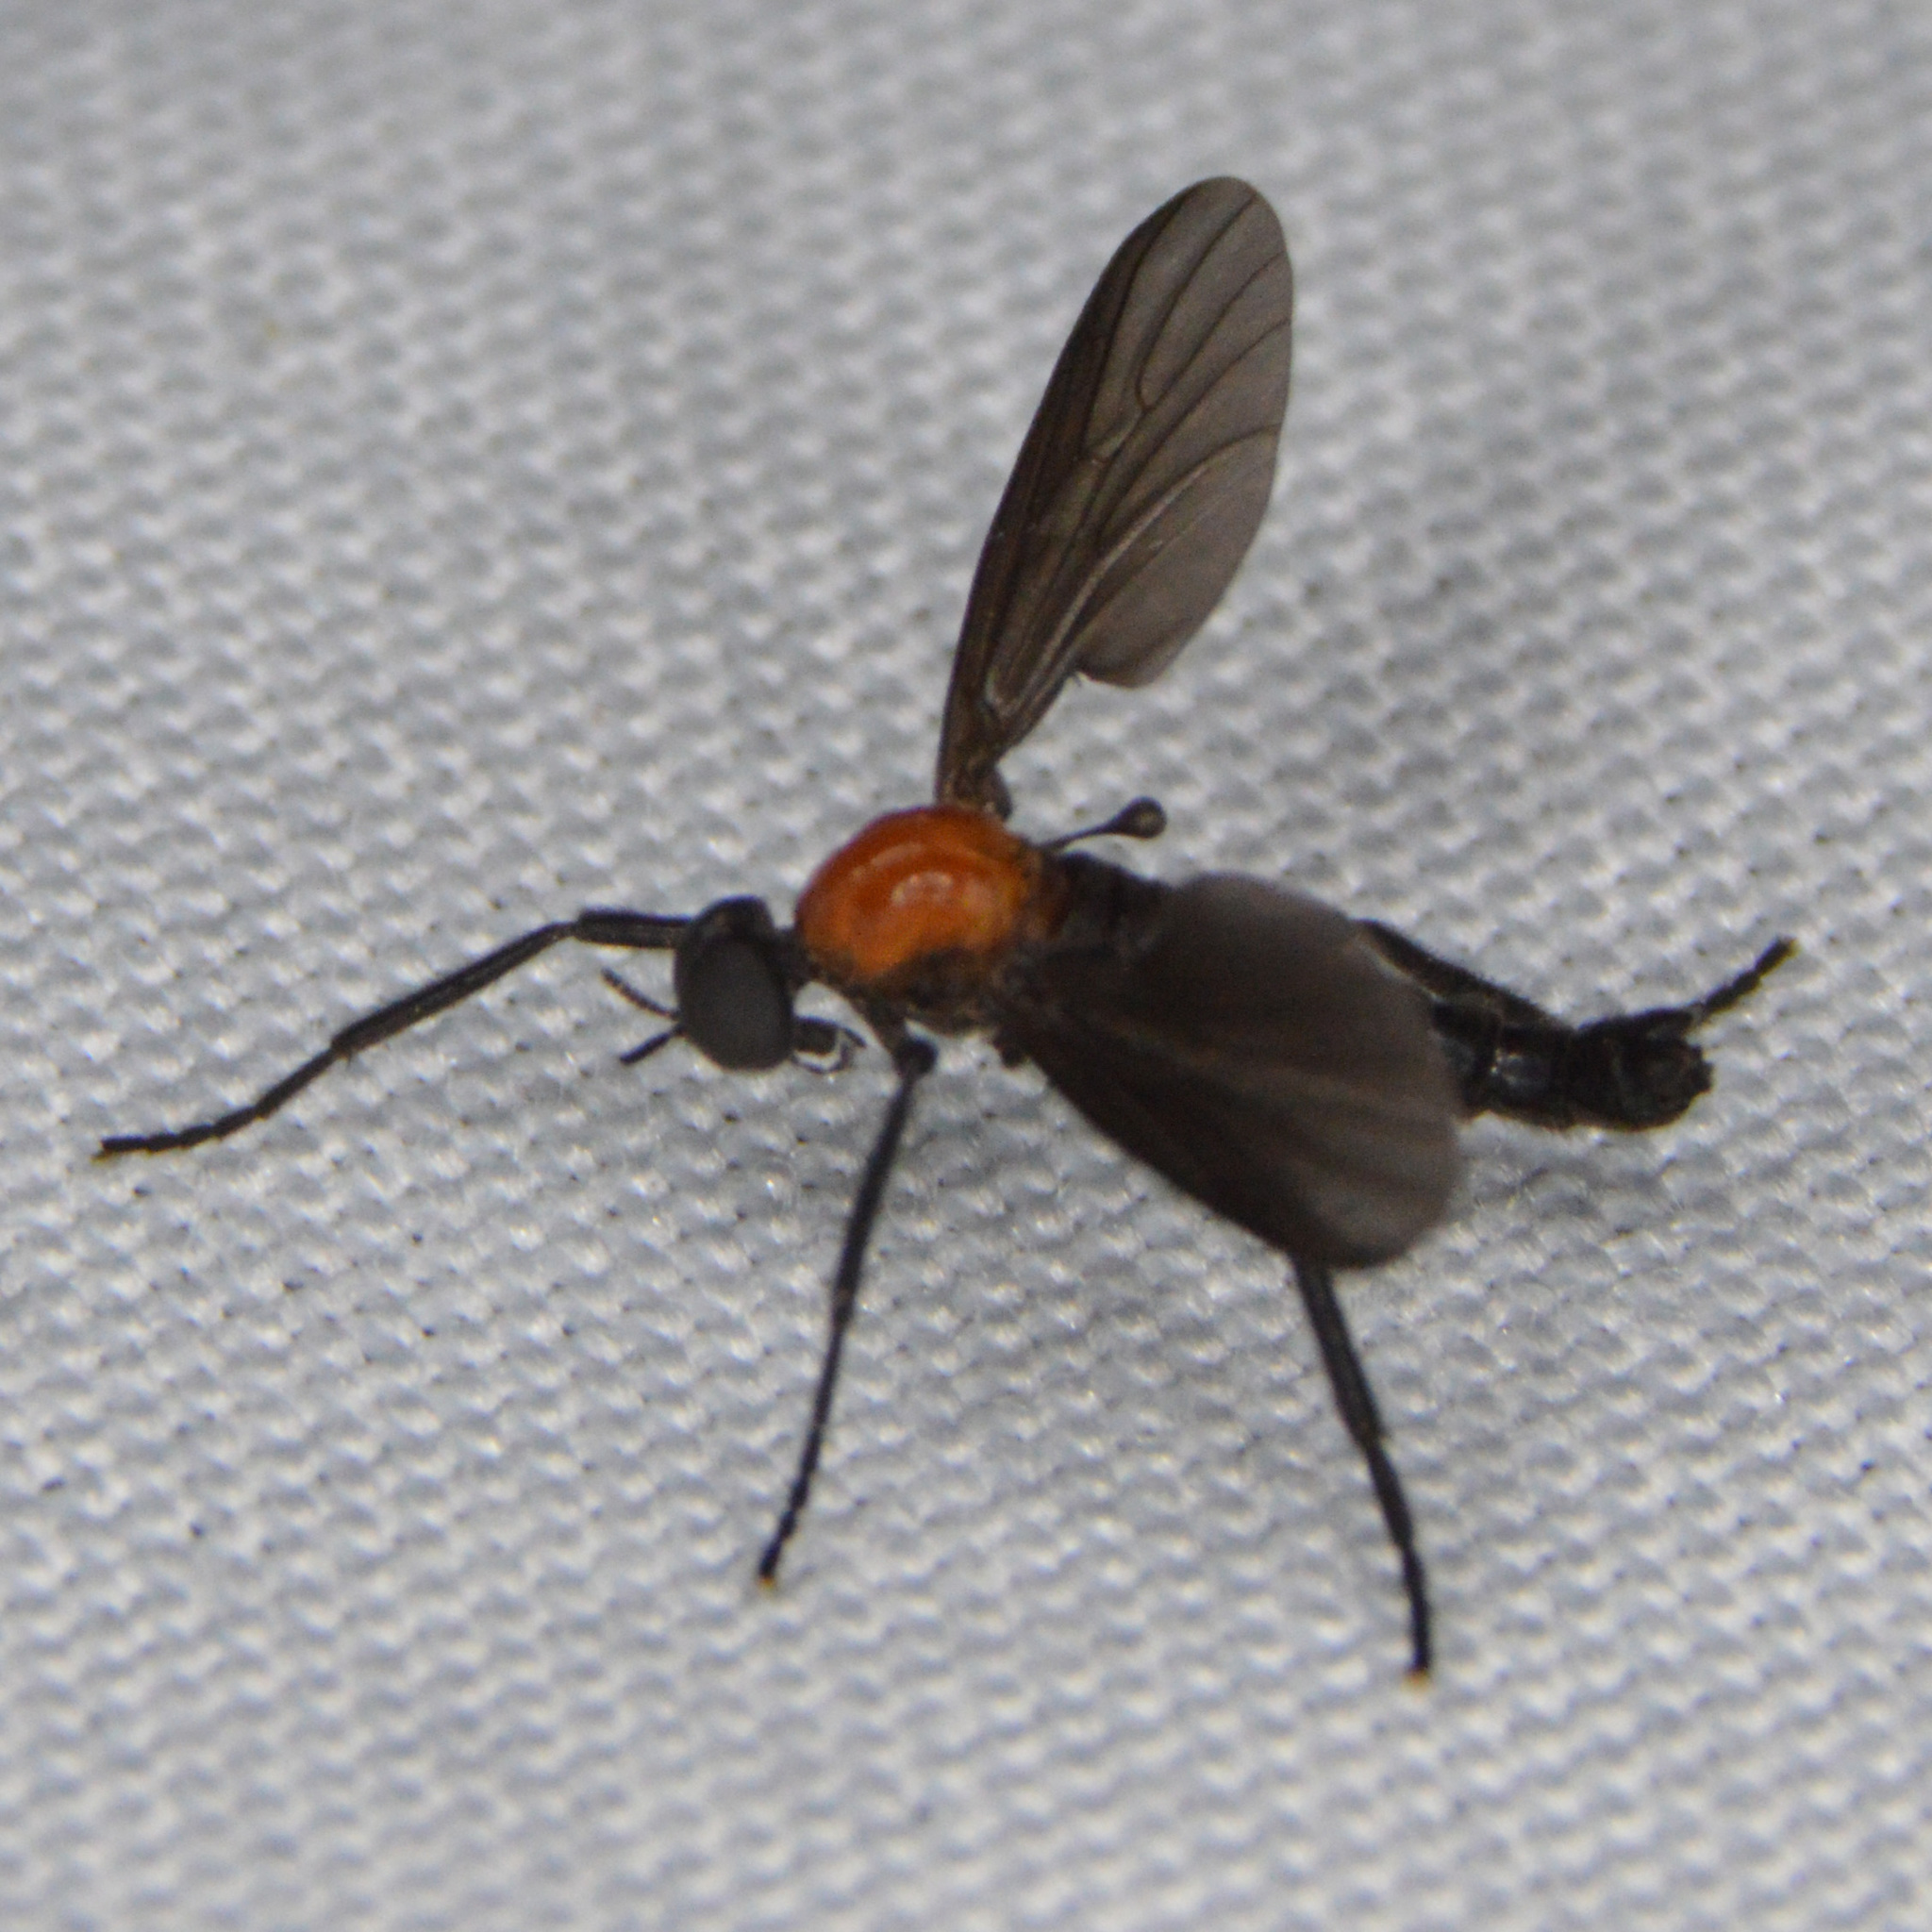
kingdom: Animalia
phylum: Arthropoda
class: Insecta
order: Diptera
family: Bibionidae
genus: Plecia
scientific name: Plecia nearctica
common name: March fly
